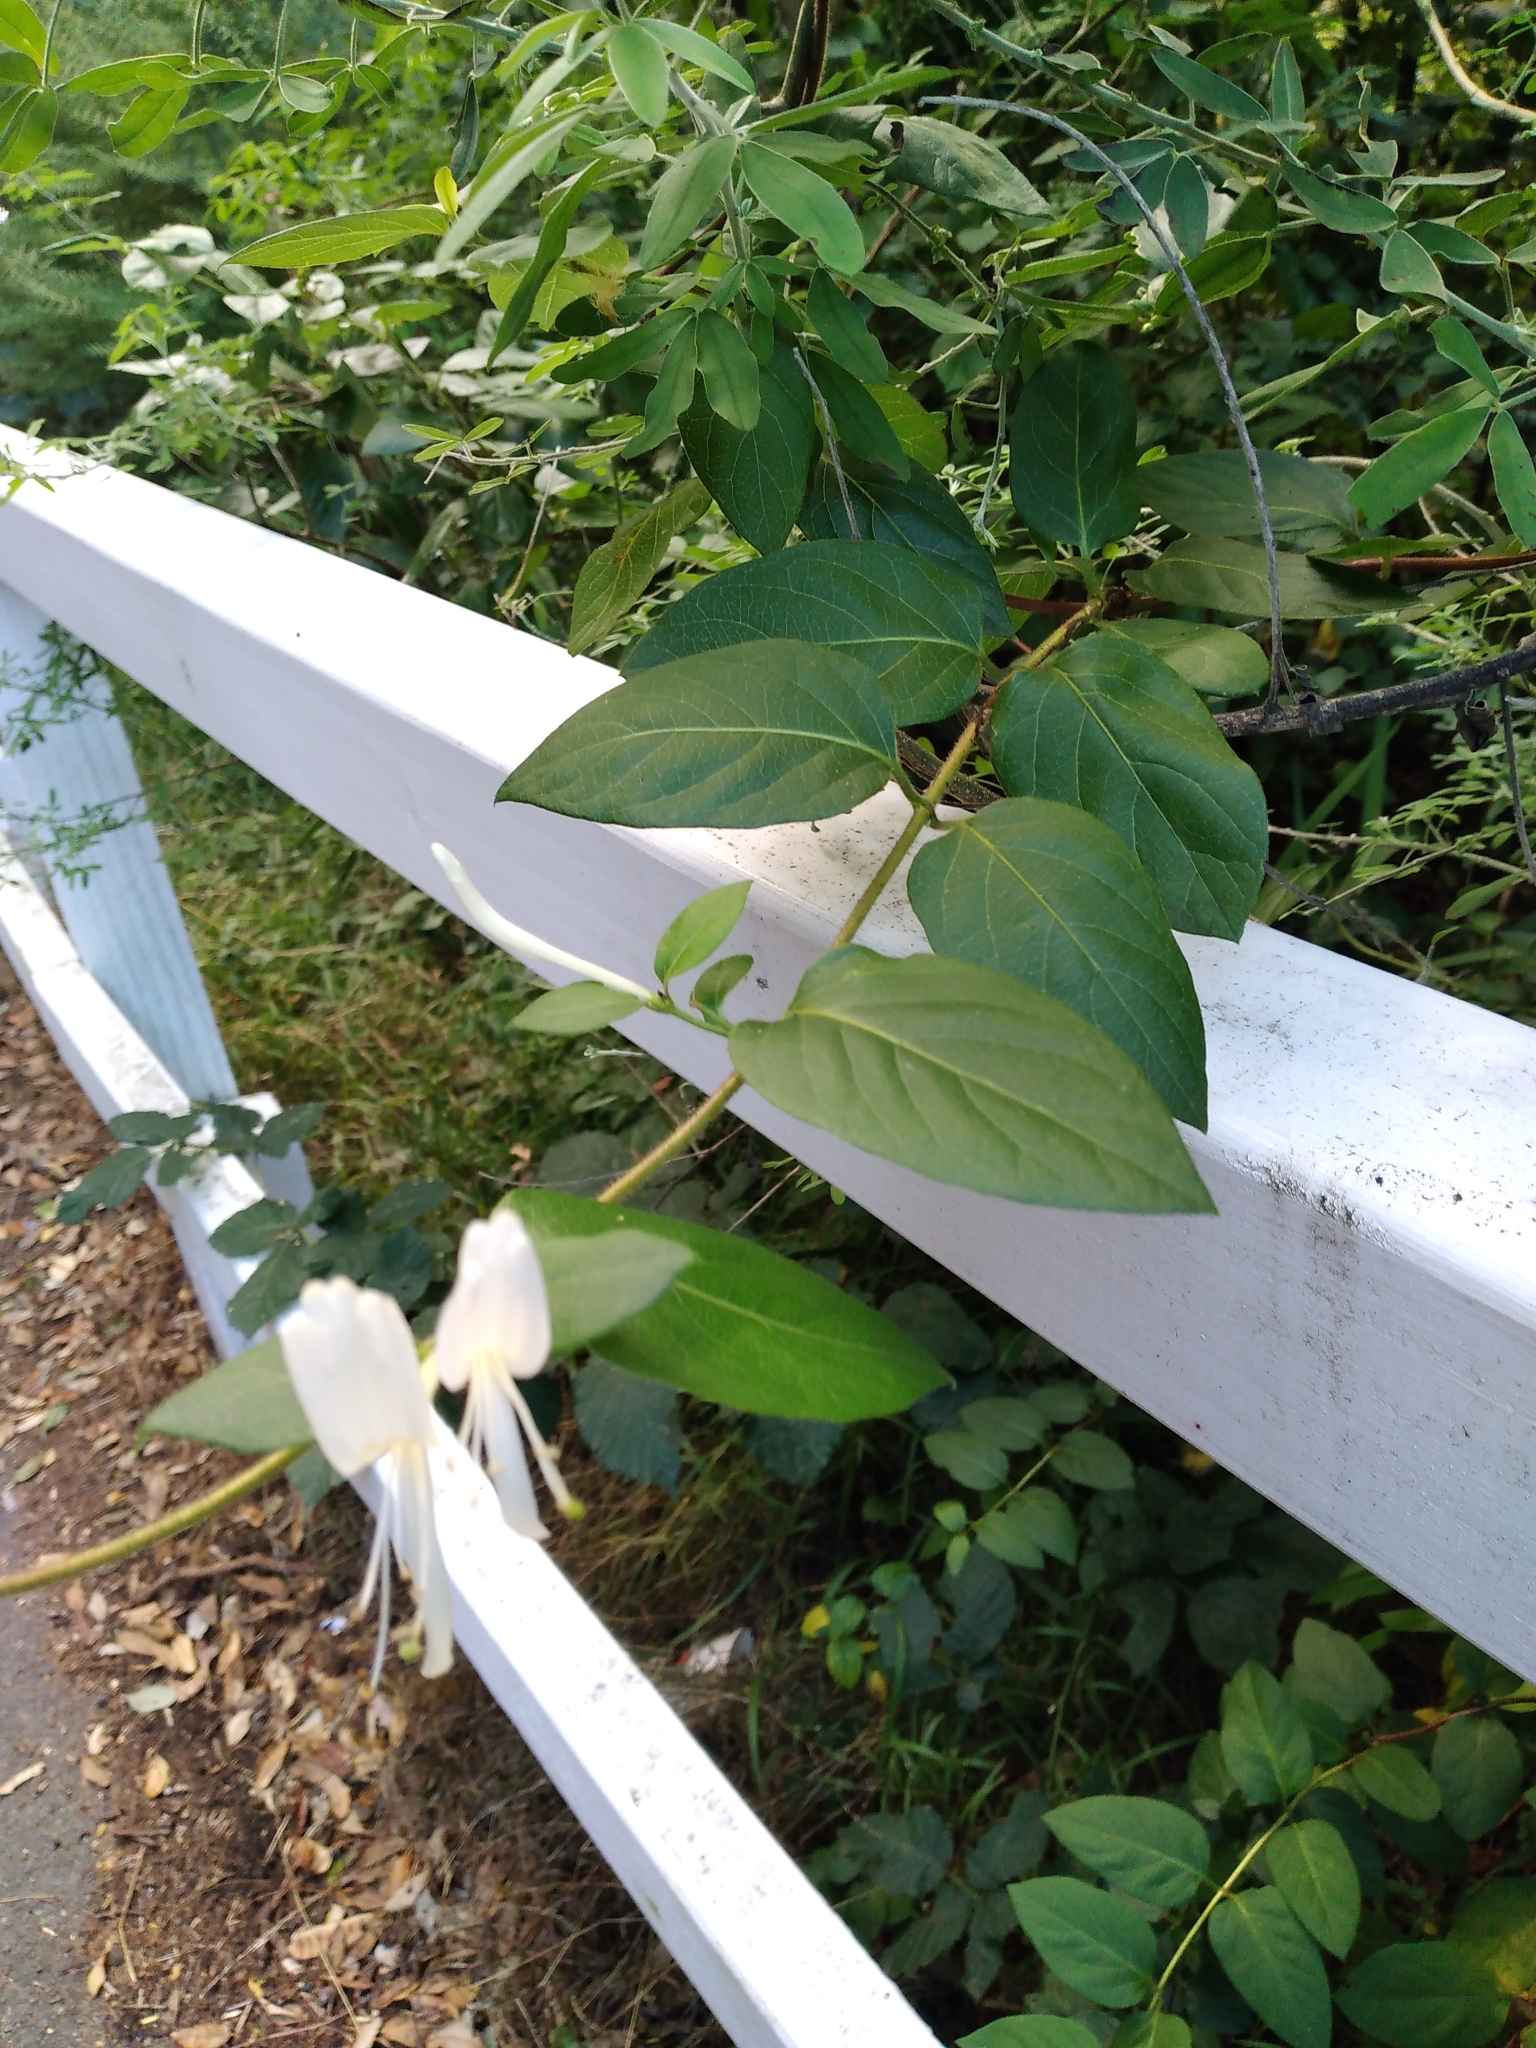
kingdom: Plantae
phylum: Tracheophyta
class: Magnoliopsida
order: Dipsacales
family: Caprifoliaceae
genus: Lonicera
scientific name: Lonicera japonica
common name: Japanese honeysuckle
